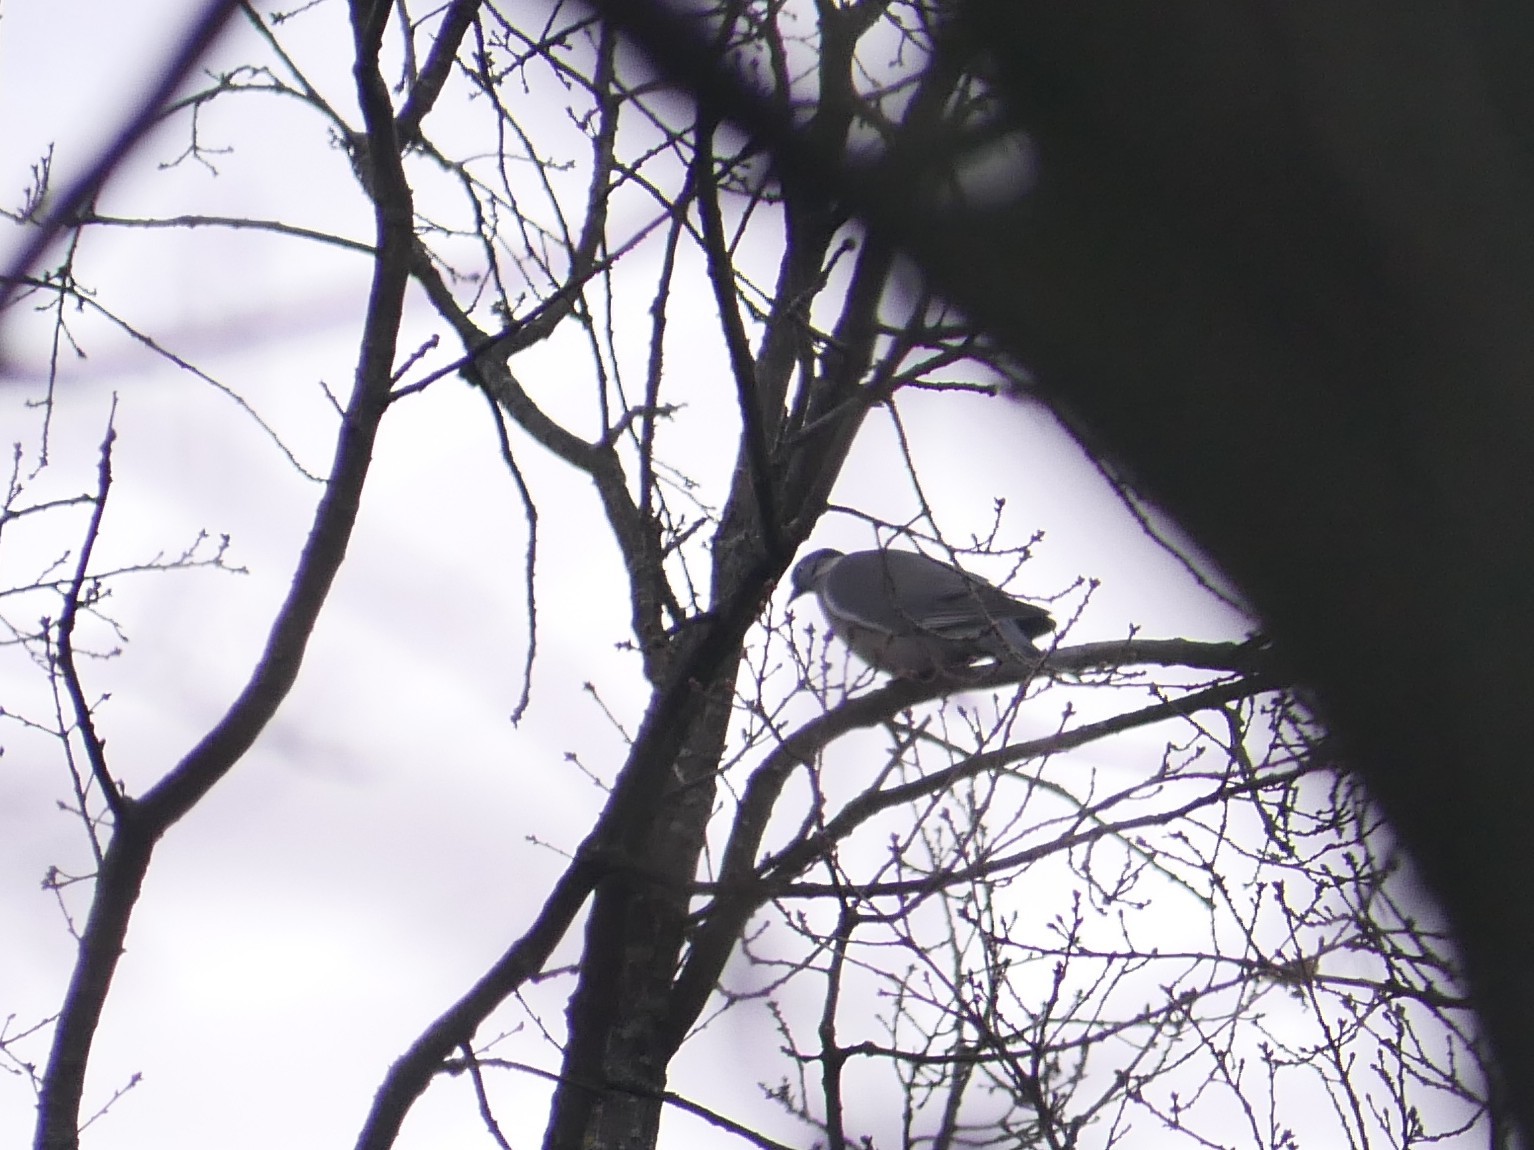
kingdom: Animalia
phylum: Chordata
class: Aves
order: Columbiformes
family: Columbidae
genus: Columba
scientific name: Columba palumbus
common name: Common wood pigeon
